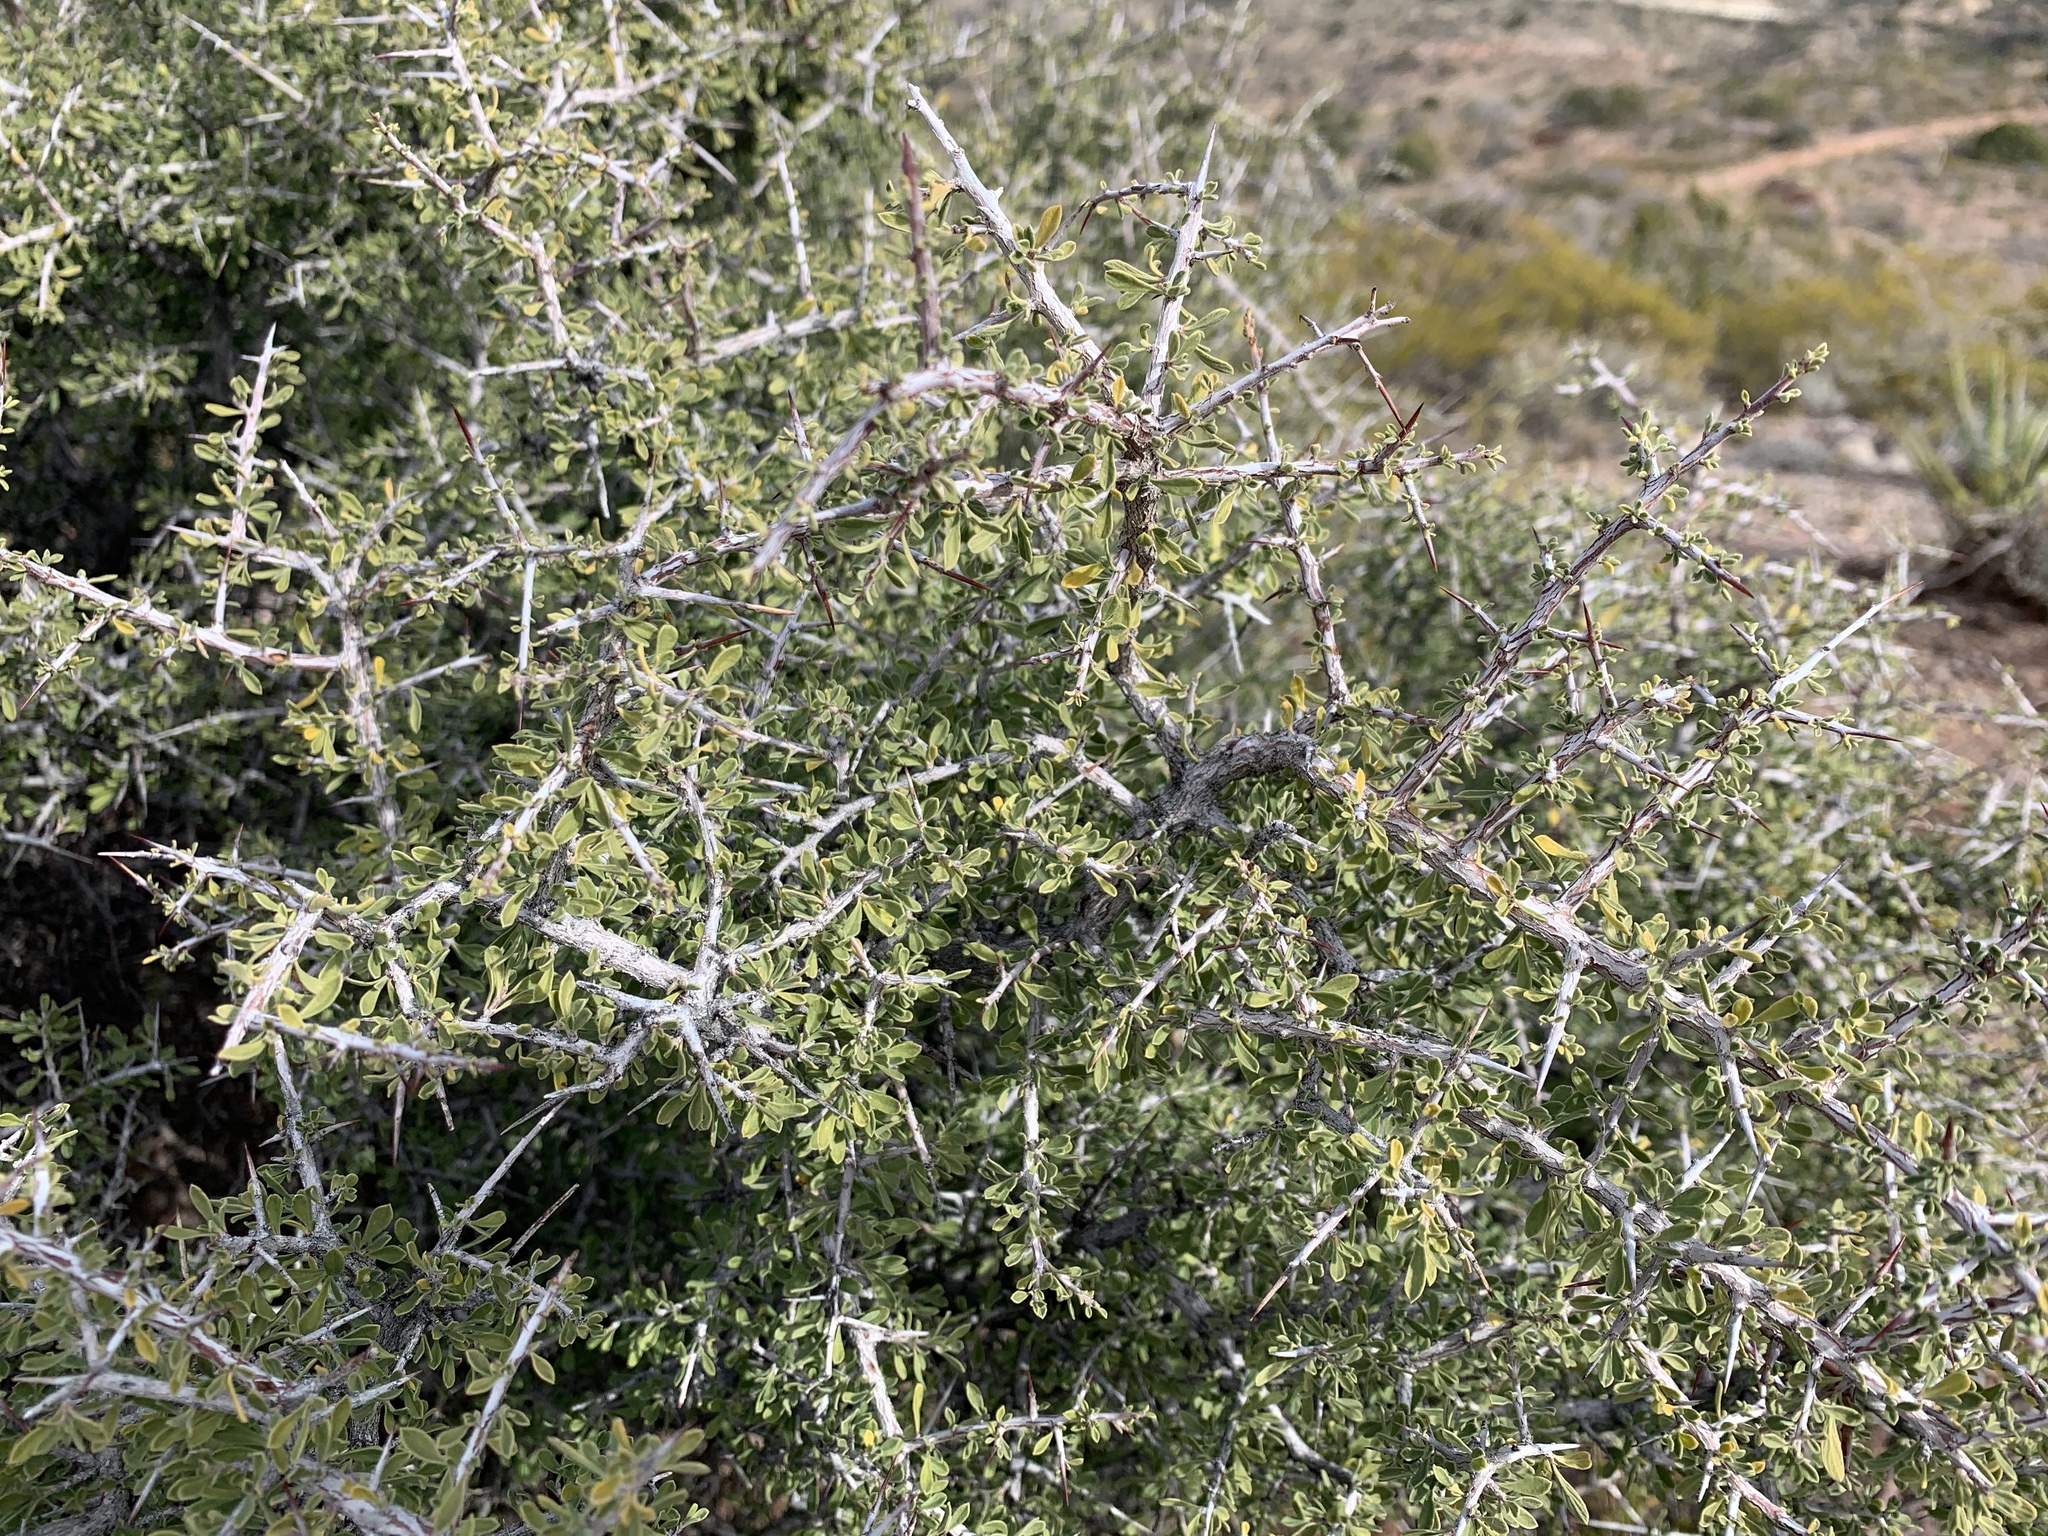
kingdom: Plantae
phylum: Tracheophyta
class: Magnoliopsida
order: Rosales
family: Rhamnaceae
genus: Condalia
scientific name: Condalia warnockii
